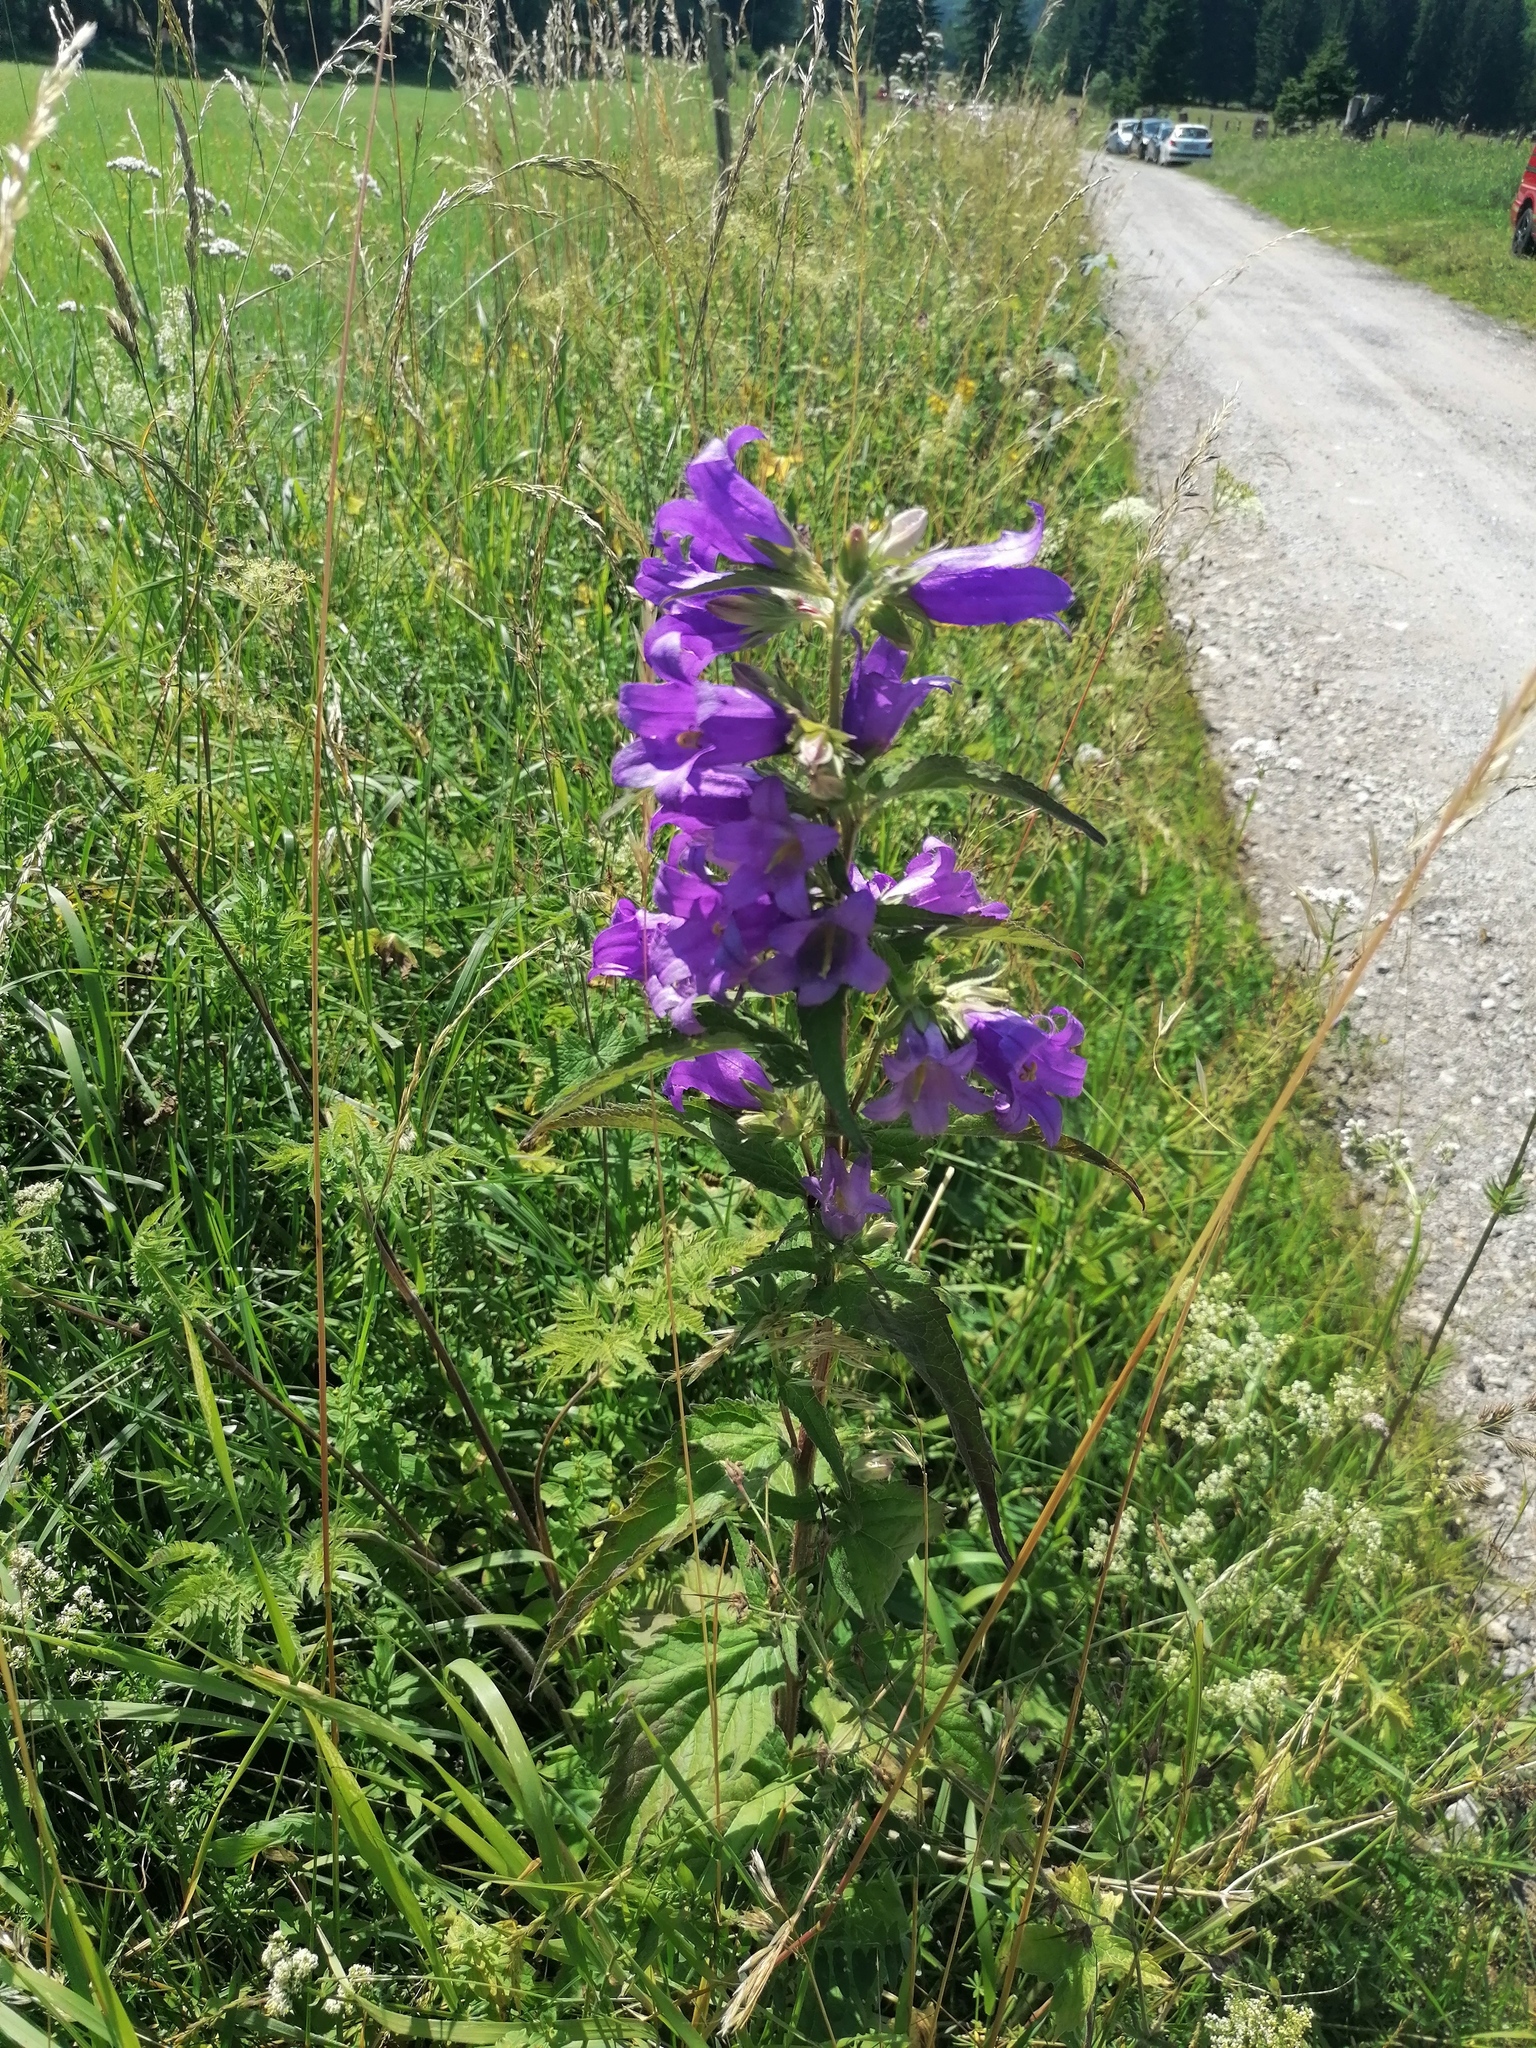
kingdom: Plantae
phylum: Tracheophyta
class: Magnoliopsida
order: Asterales
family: Campanulaceae
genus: Campanula
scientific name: Campanula trachelium
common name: Nettle-leaved bellflower
